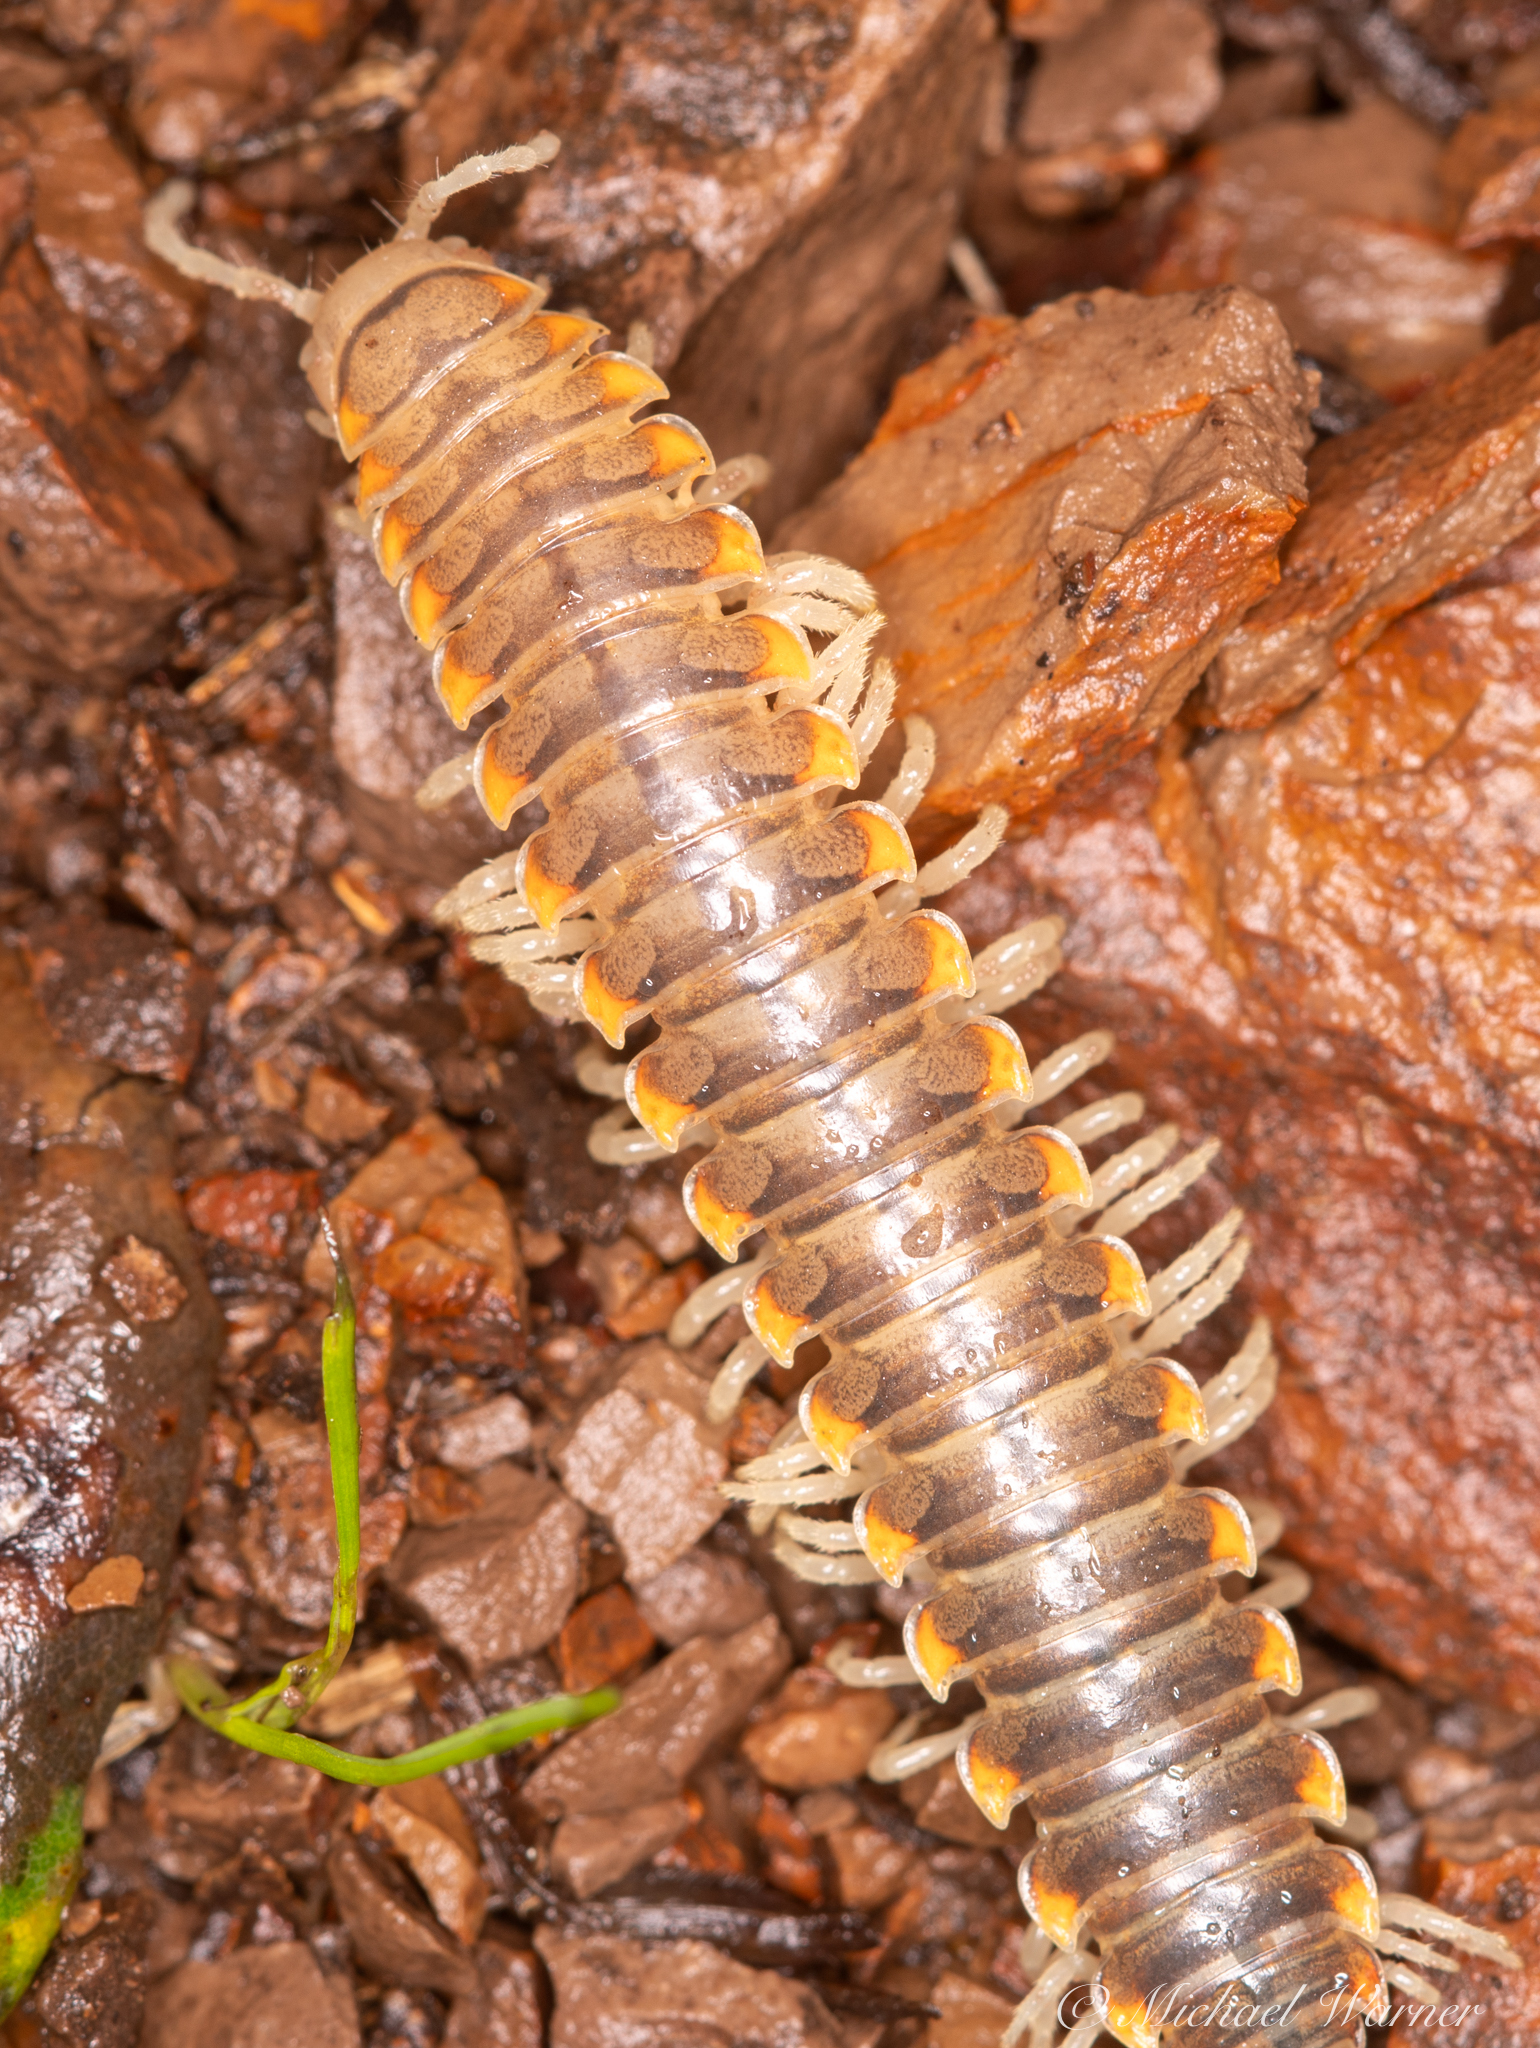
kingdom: Animalia
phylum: Arthropoda
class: Diplopoda
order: Polydesmida
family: Xystodesmidae
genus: Xystocheir
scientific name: Xystocheir dissecta
